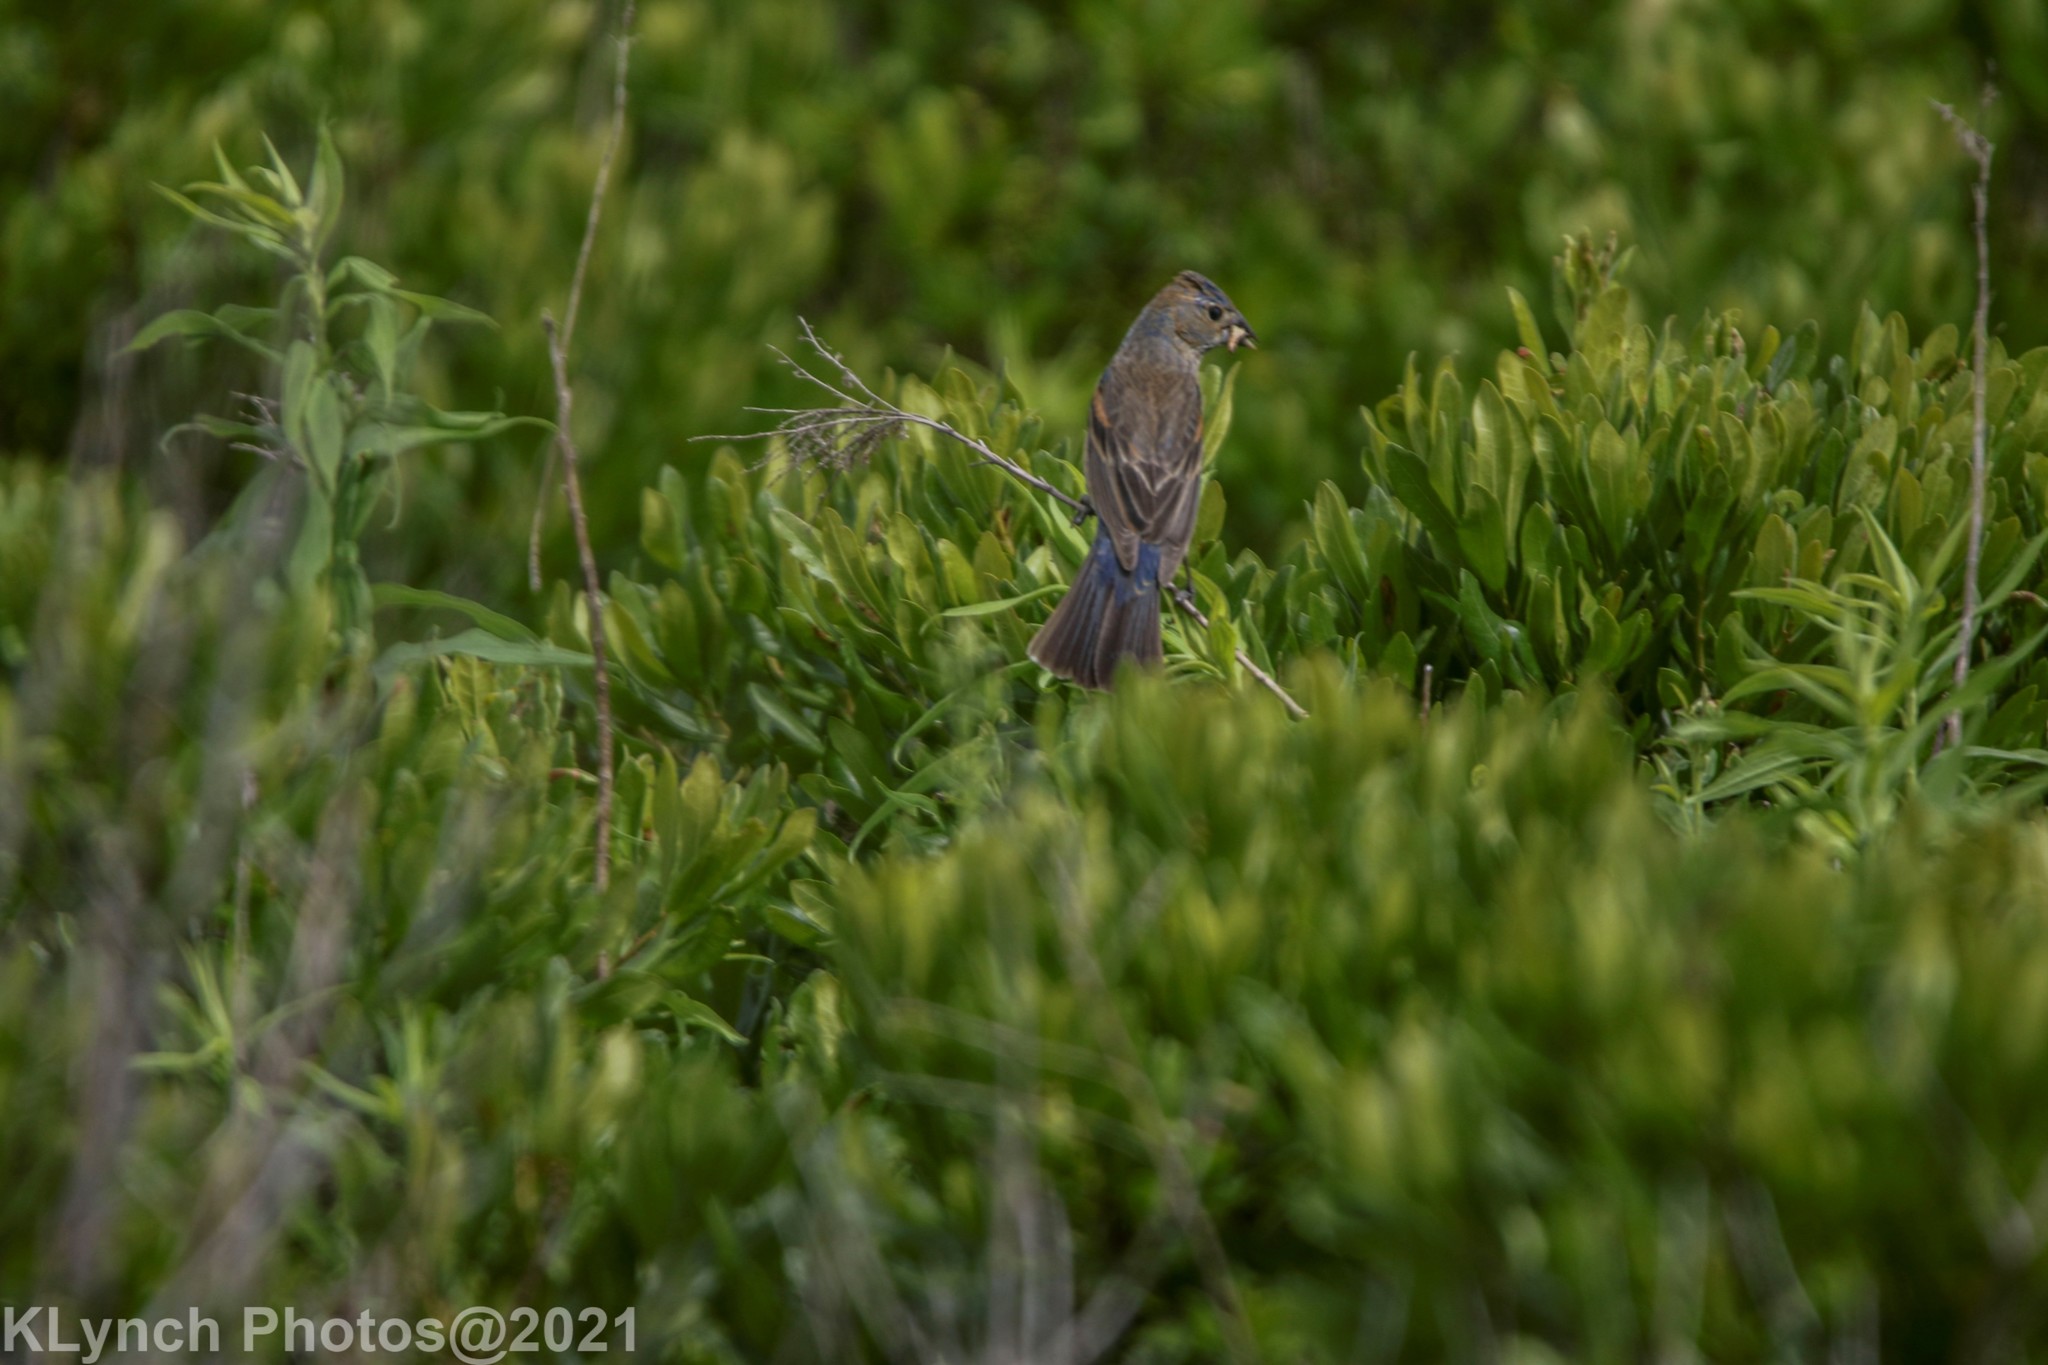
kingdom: Animalia
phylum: Chordata
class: Aves
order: Passeriformes
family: Cardinalidae
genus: Passerina
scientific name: Passerina caerulea
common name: Blue grosbeak
